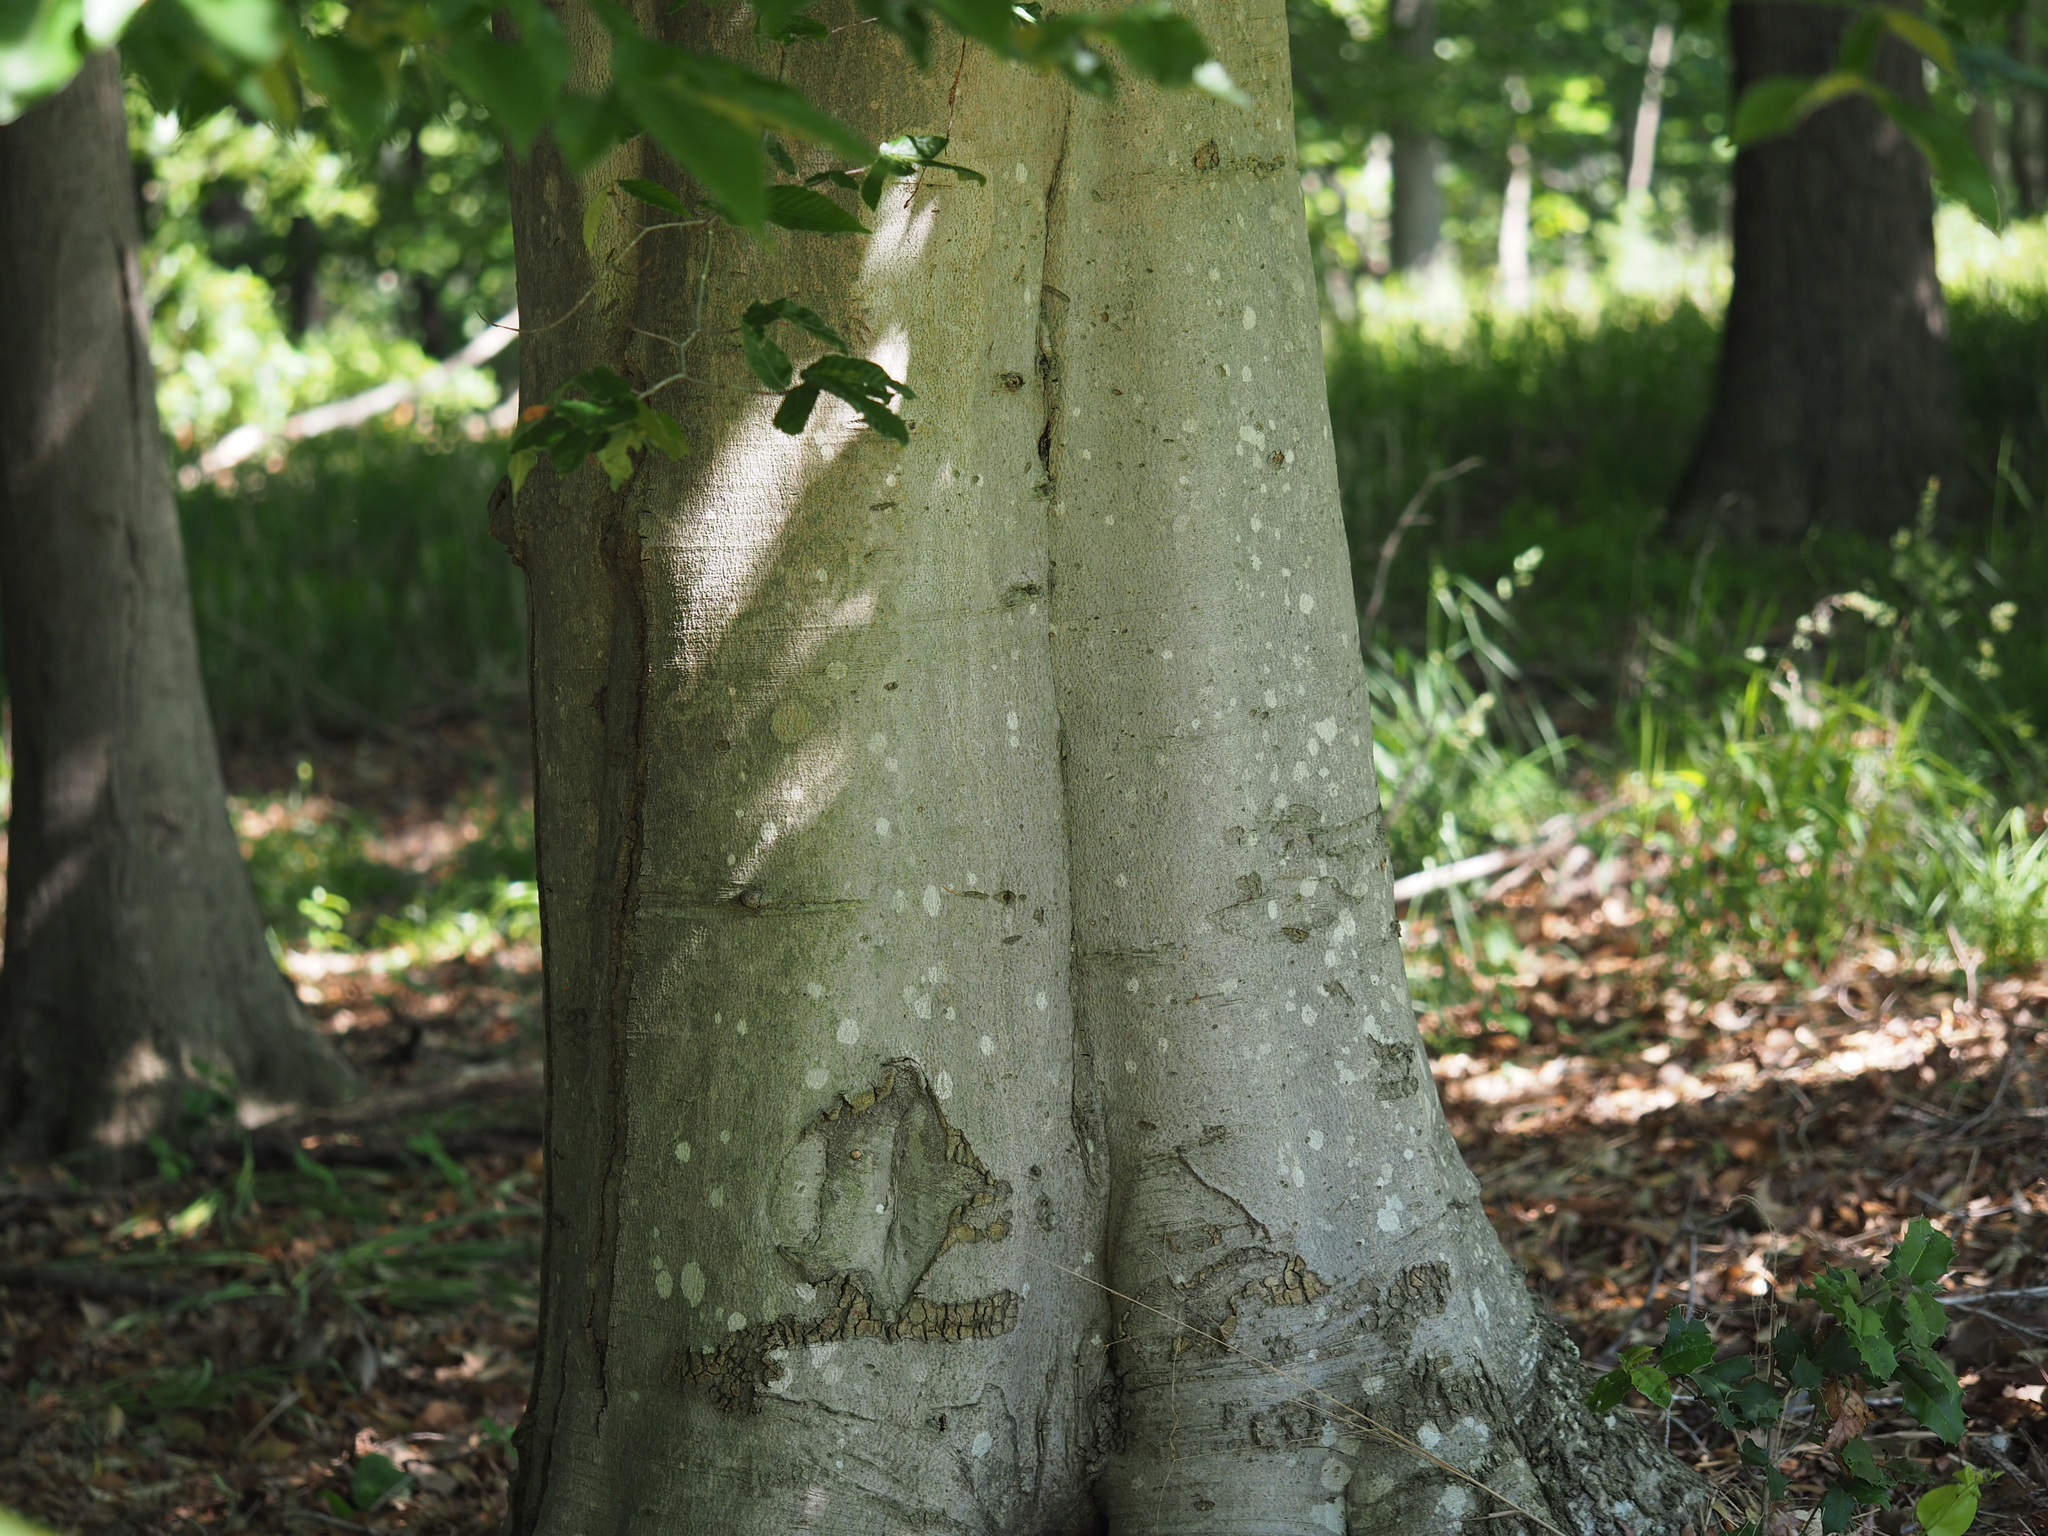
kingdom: Plantae
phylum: Tracheophyta
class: Magnoliopsida
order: Fagales
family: Fagaceae
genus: Fagus
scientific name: Fagus grandifolia
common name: American beech
